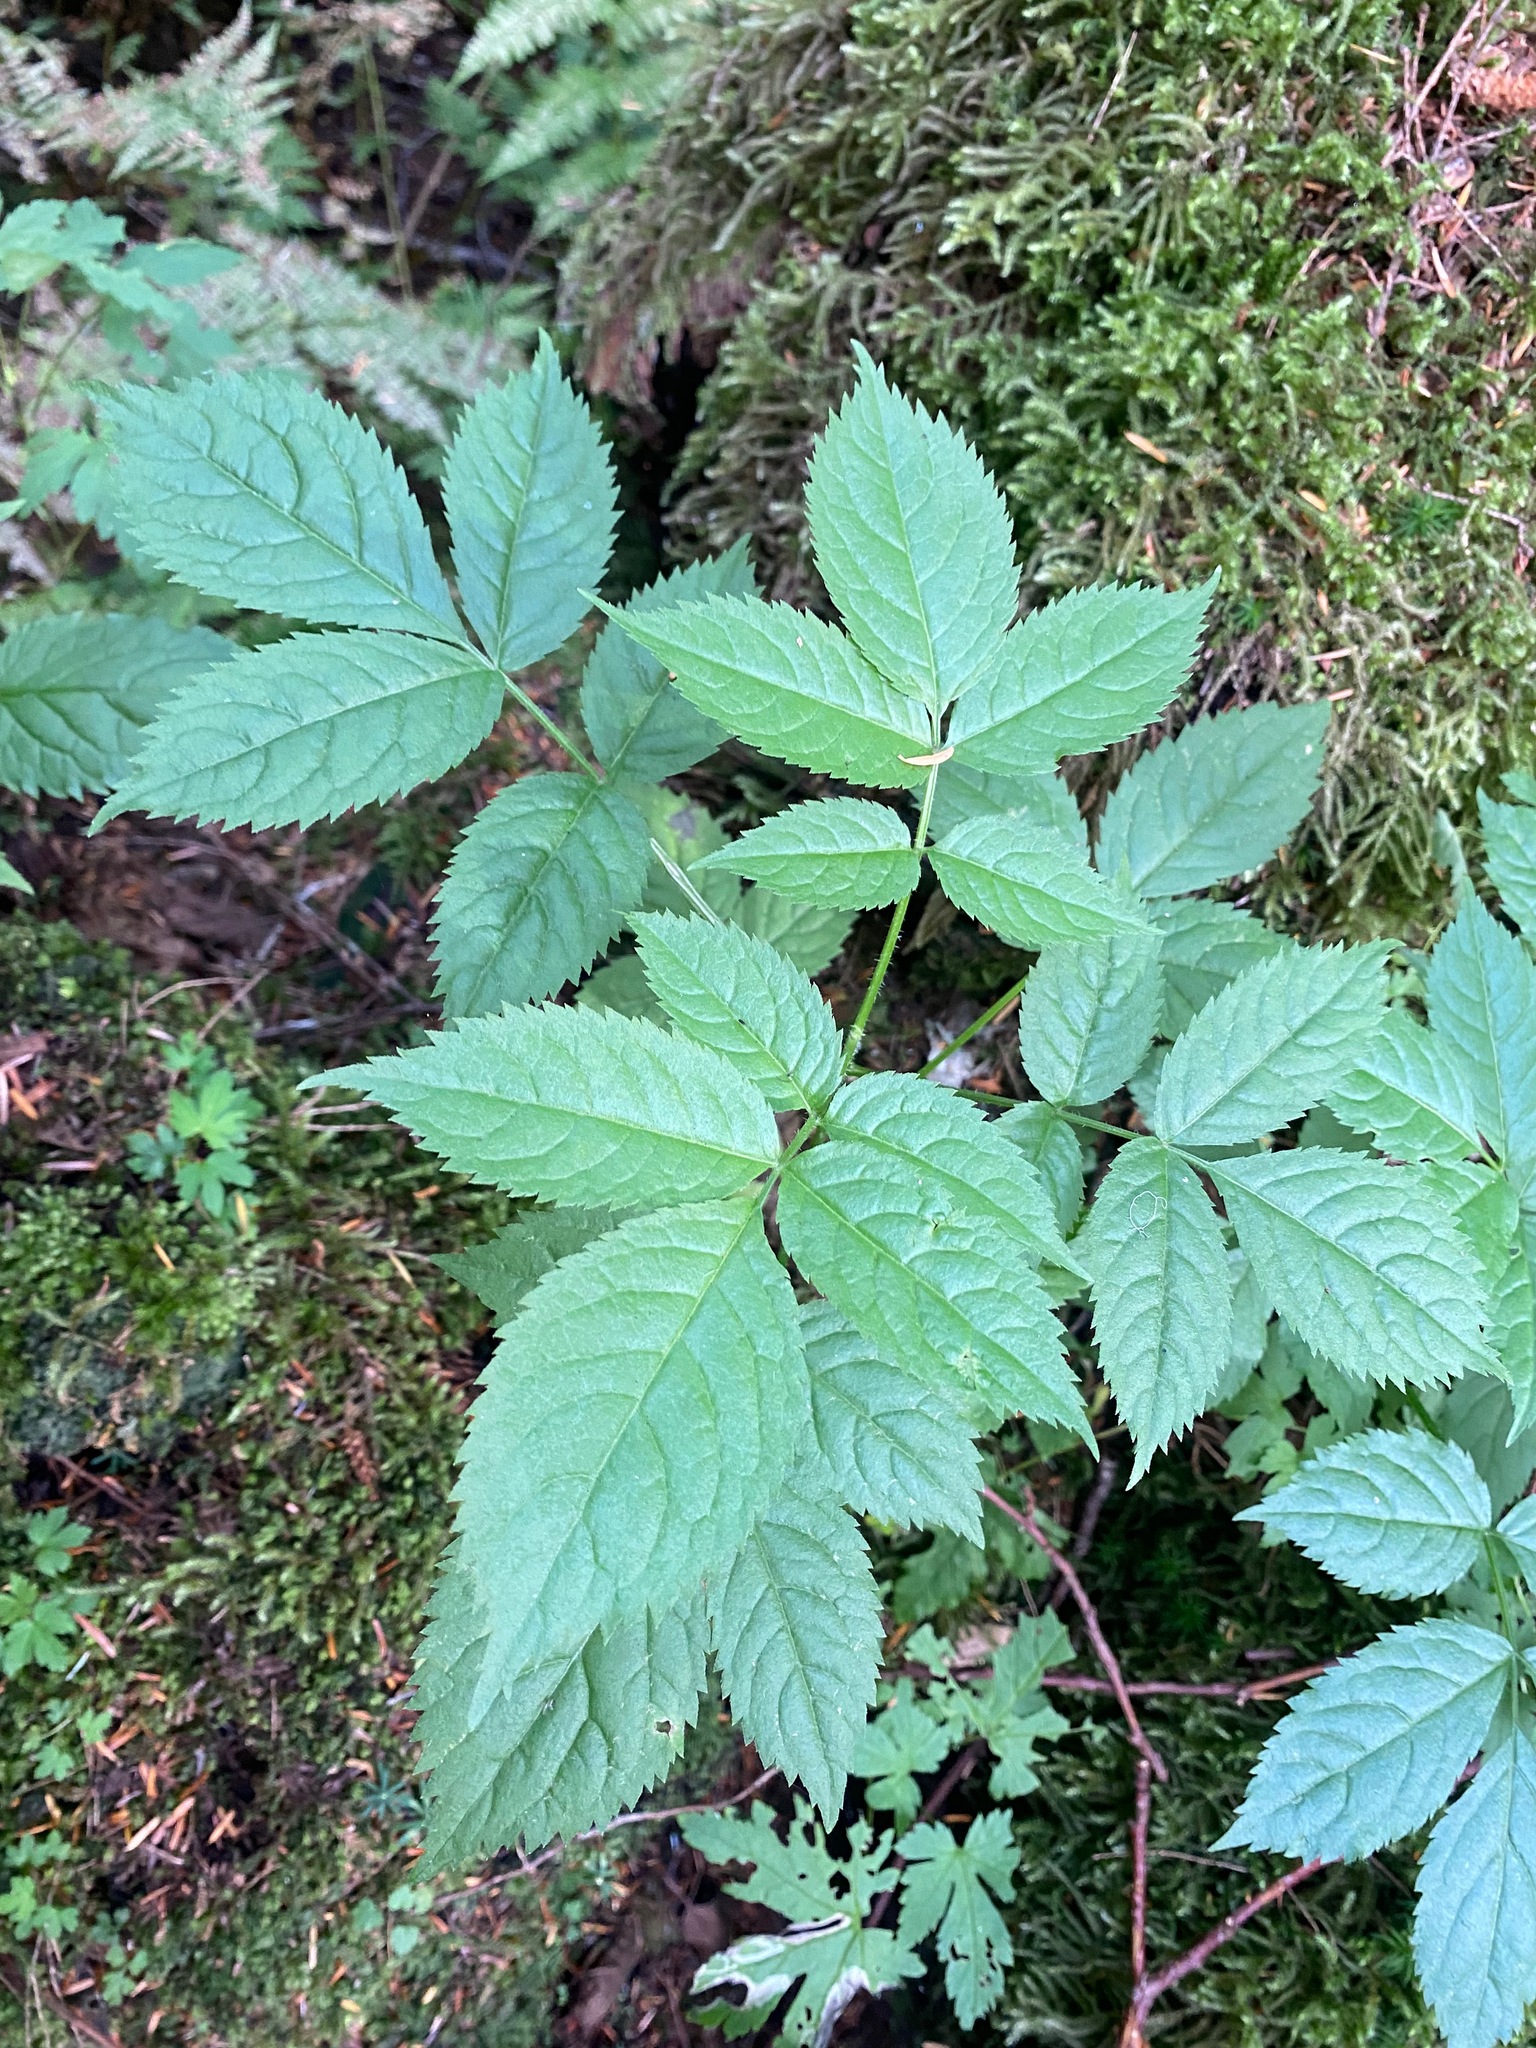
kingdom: Plantae
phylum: Tracheophyta
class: Magnoliopsida
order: Rosales
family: Rosaceae
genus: Aruncus
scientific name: Aruncus dioicus
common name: Buck's-beard
